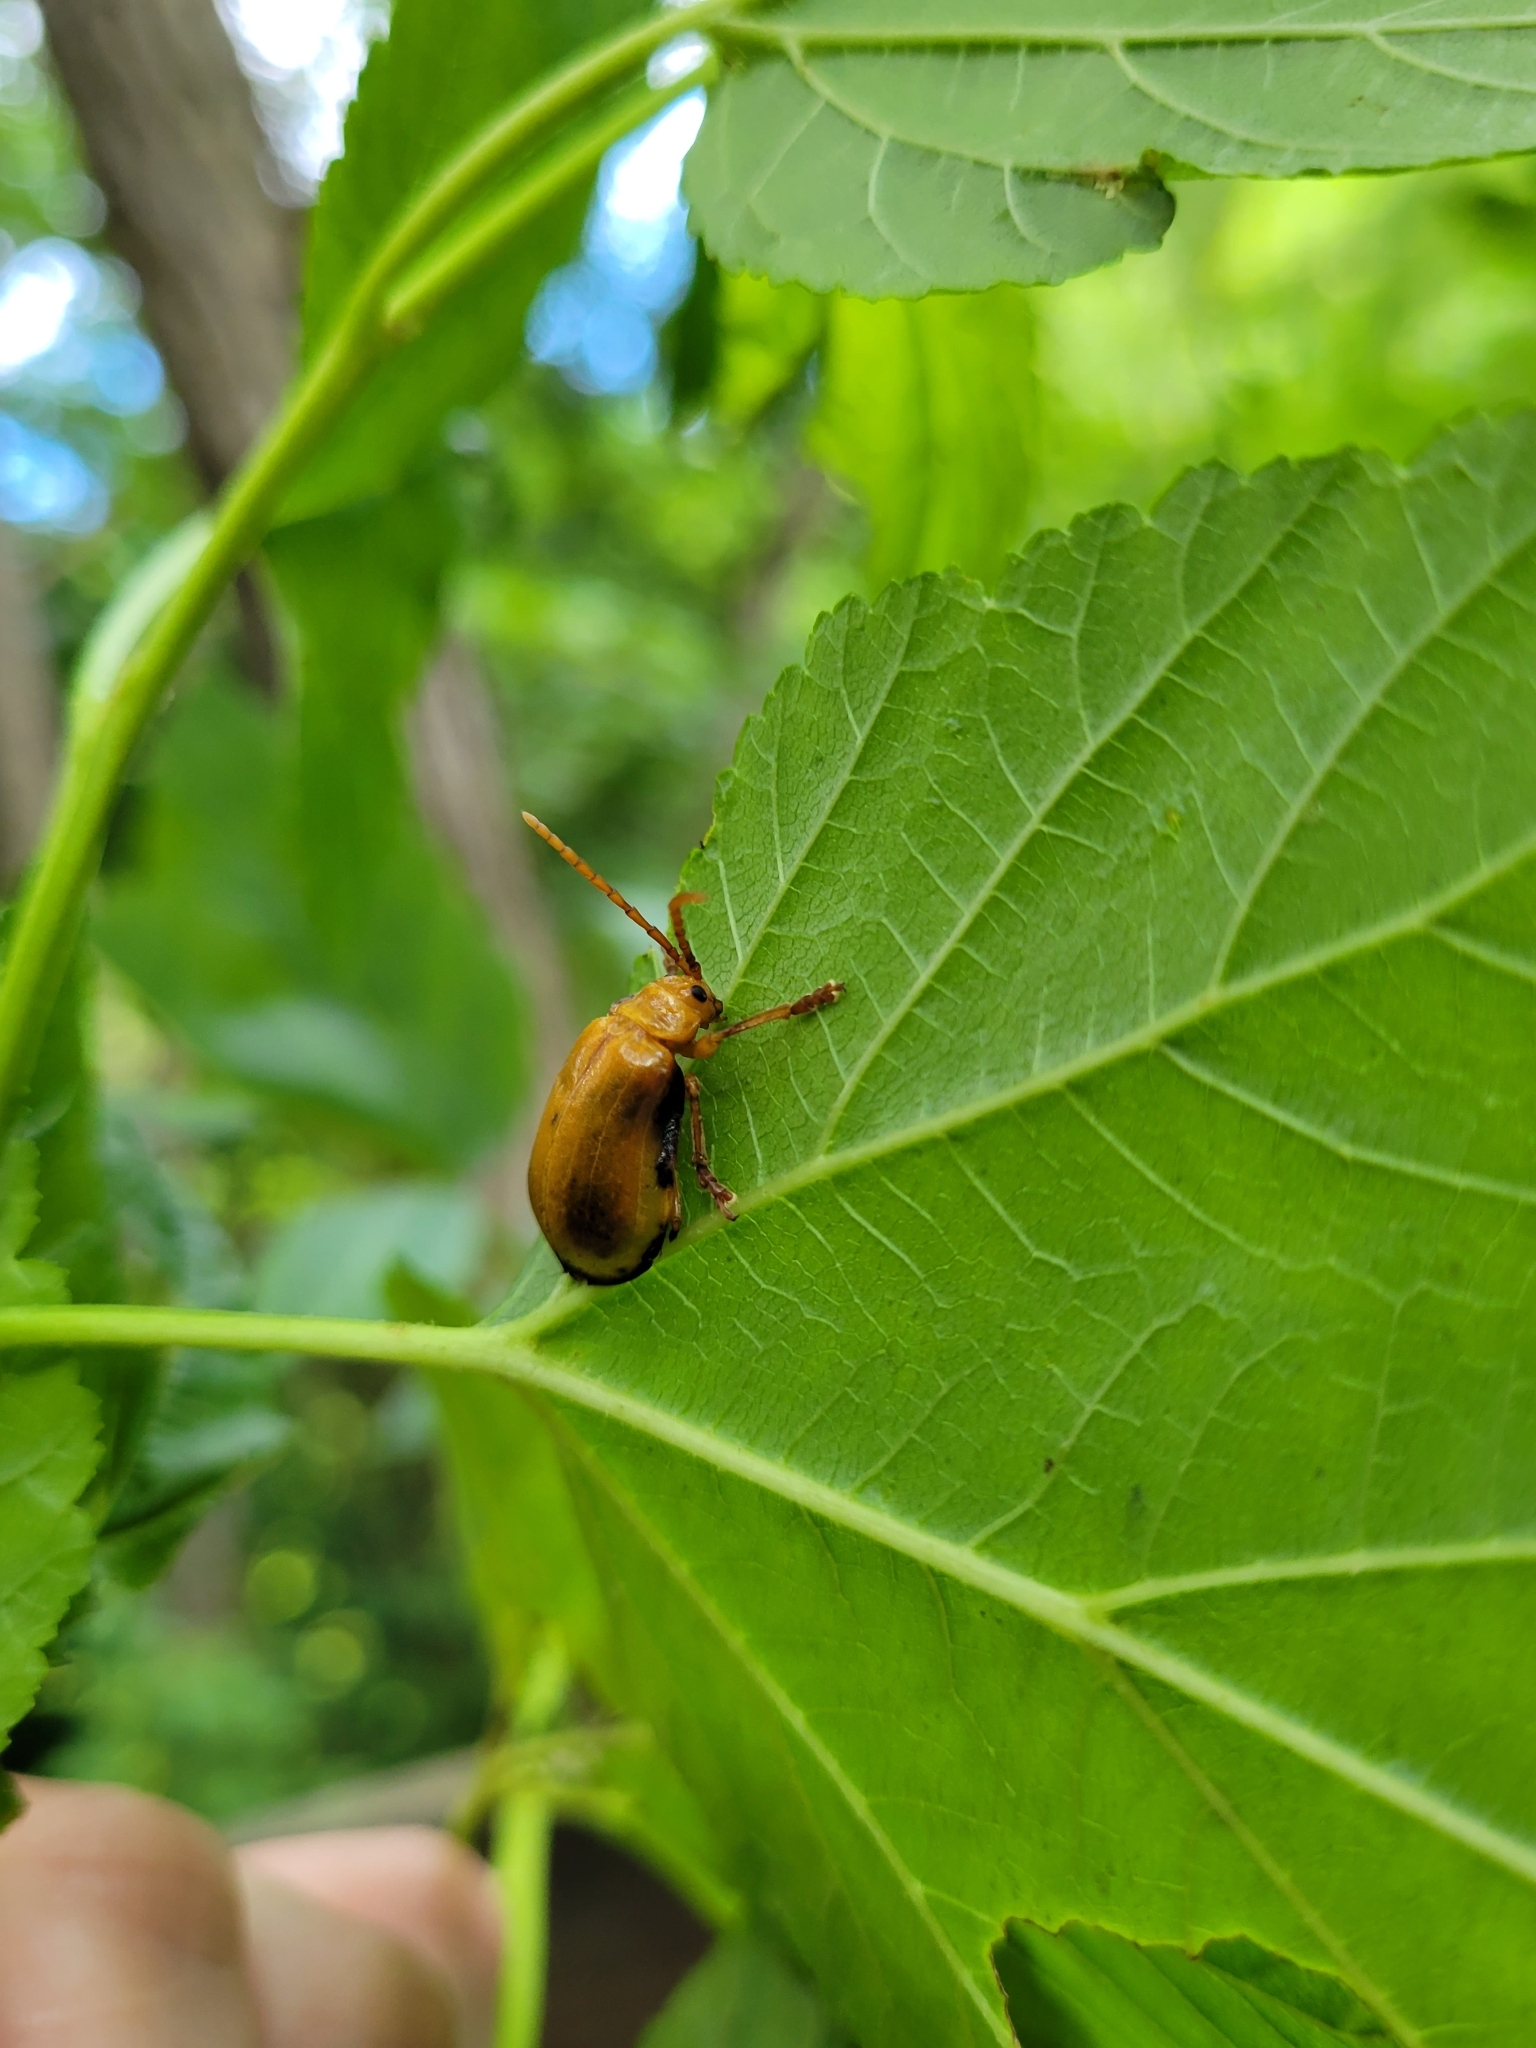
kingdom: Animalia
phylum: Arthropoda
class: Insecta
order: Coleoptera
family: Chrysomelidae
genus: Monocesta
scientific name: Monocesta coryli
